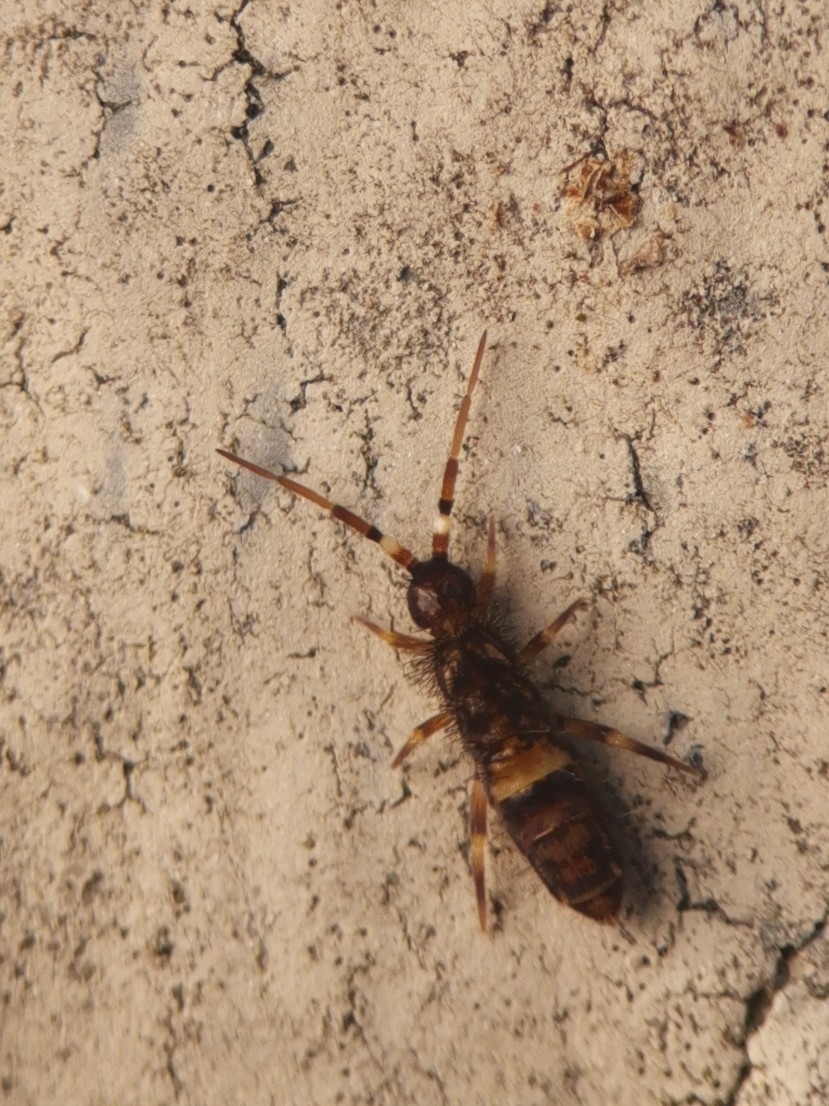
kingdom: Animalia
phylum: Arthropoda
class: Collembola
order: Entomobryomorpha
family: Orchesellidae
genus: Orchesella
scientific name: Orchesella cincta
